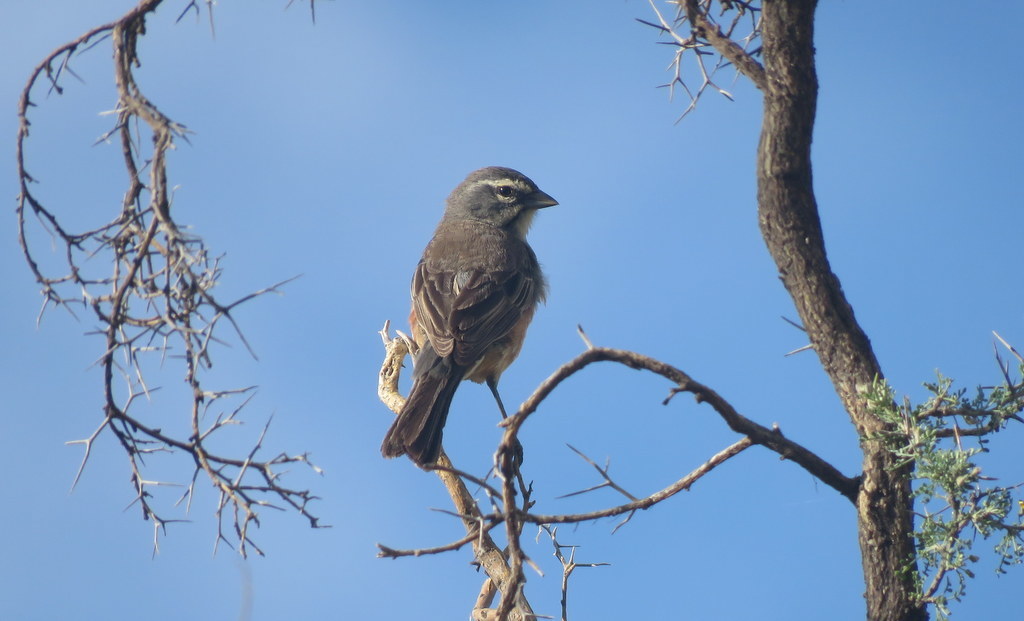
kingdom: Animalia
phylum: Chordata
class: Aves
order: Passeriformes
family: Thraupidae
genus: Poospizopsis
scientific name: Poospizopsis hypocondria
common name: Rufous-sided warbling-finch
